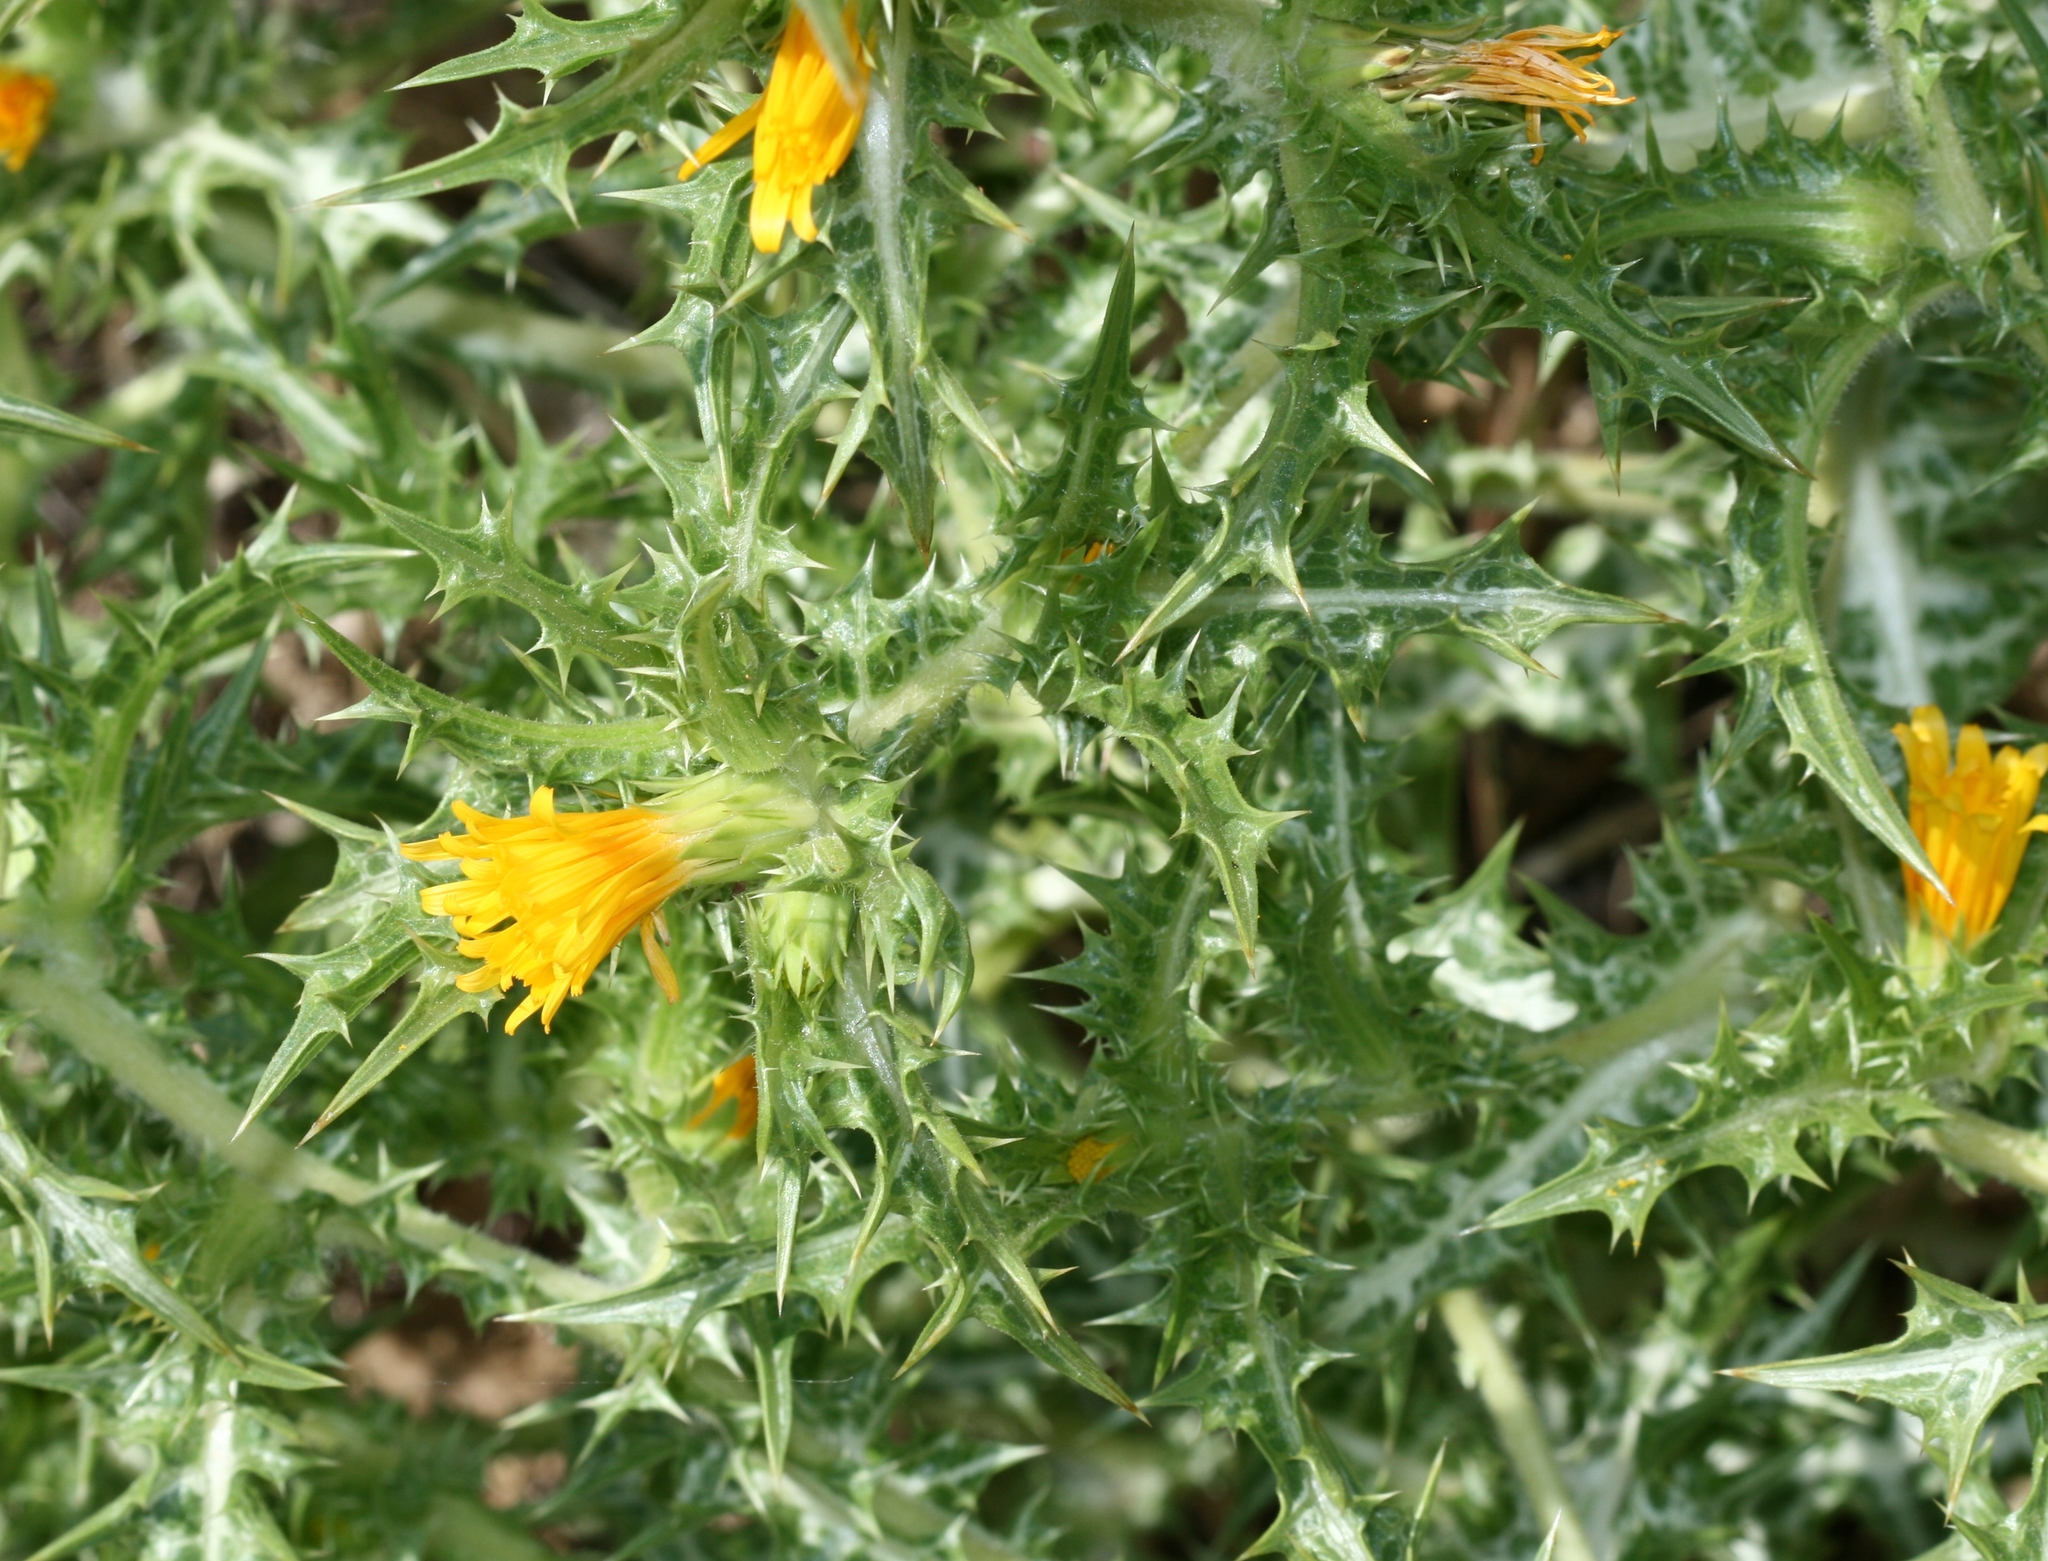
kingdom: Plantae
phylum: Tracheophyta
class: Magnoliopsida
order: Asterales
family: Asteraceae
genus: Scolymus
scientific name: Scolymus hispanicus
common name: Golden thistle
